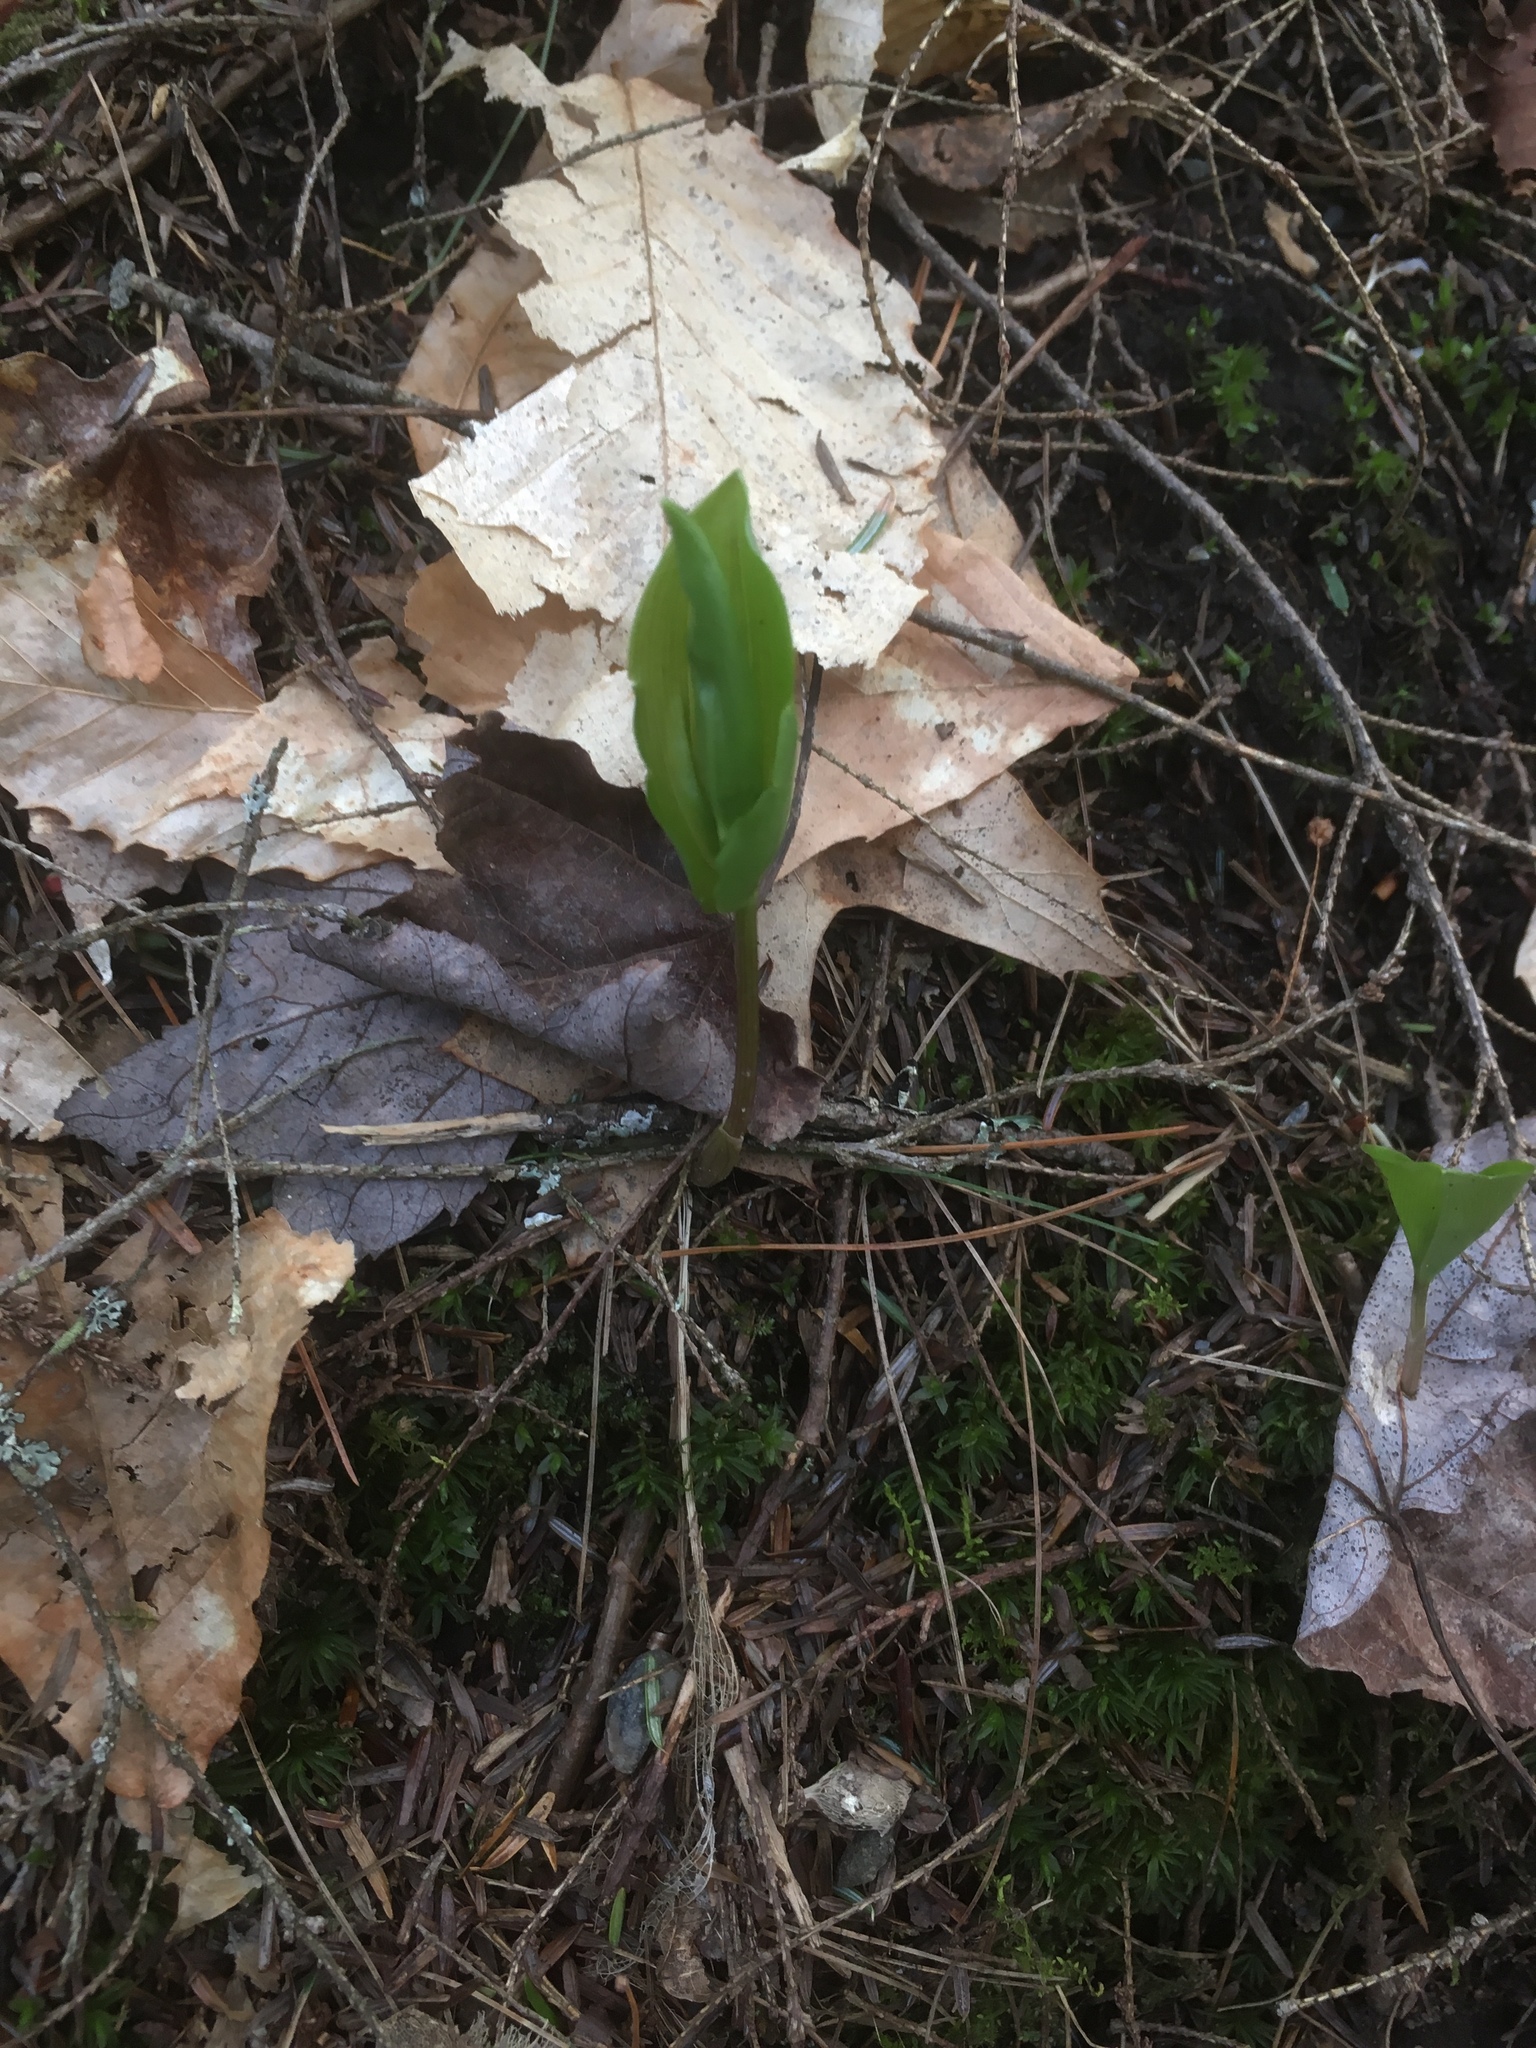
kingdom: Plantae
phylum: Tracheophyta
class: Liliopsida
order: Asparagales
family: Asparagaceae
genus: Maianthemum
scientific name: Maianthemum canadense
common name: False lily-of-the-valley
